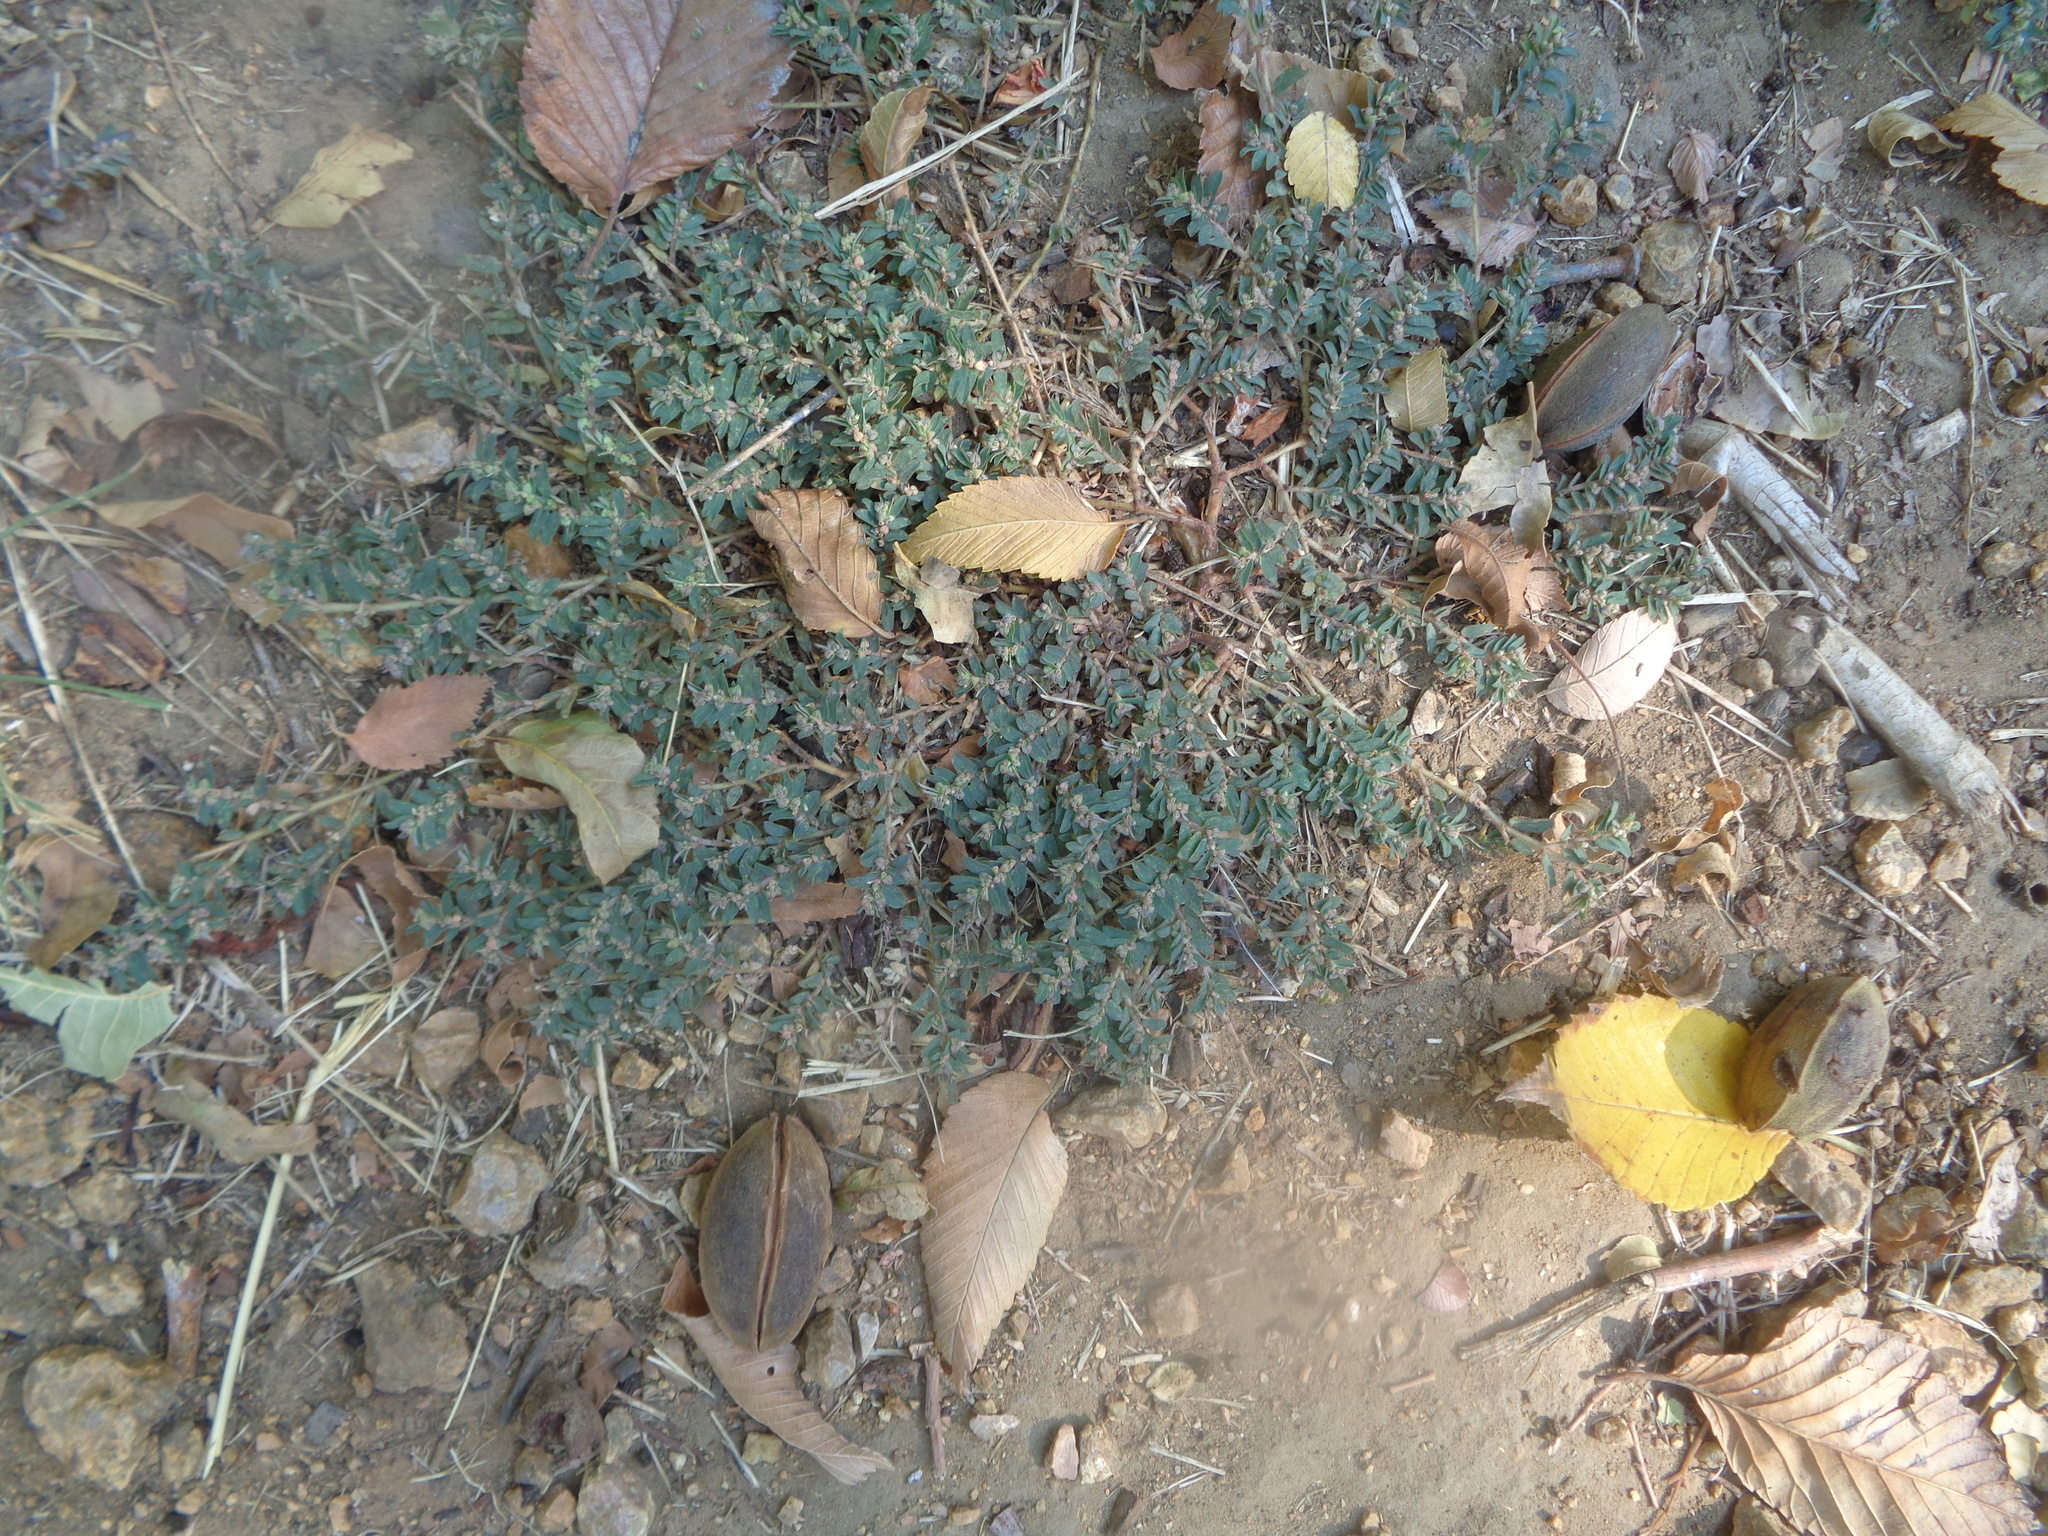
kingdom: Plantae
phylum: Tracheophyta
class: Magnoliopsida
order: Malpighiales
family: Euphorbiaceae
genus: Euphorbia
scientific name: Euphorbia maculata
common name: Spotted spurge
